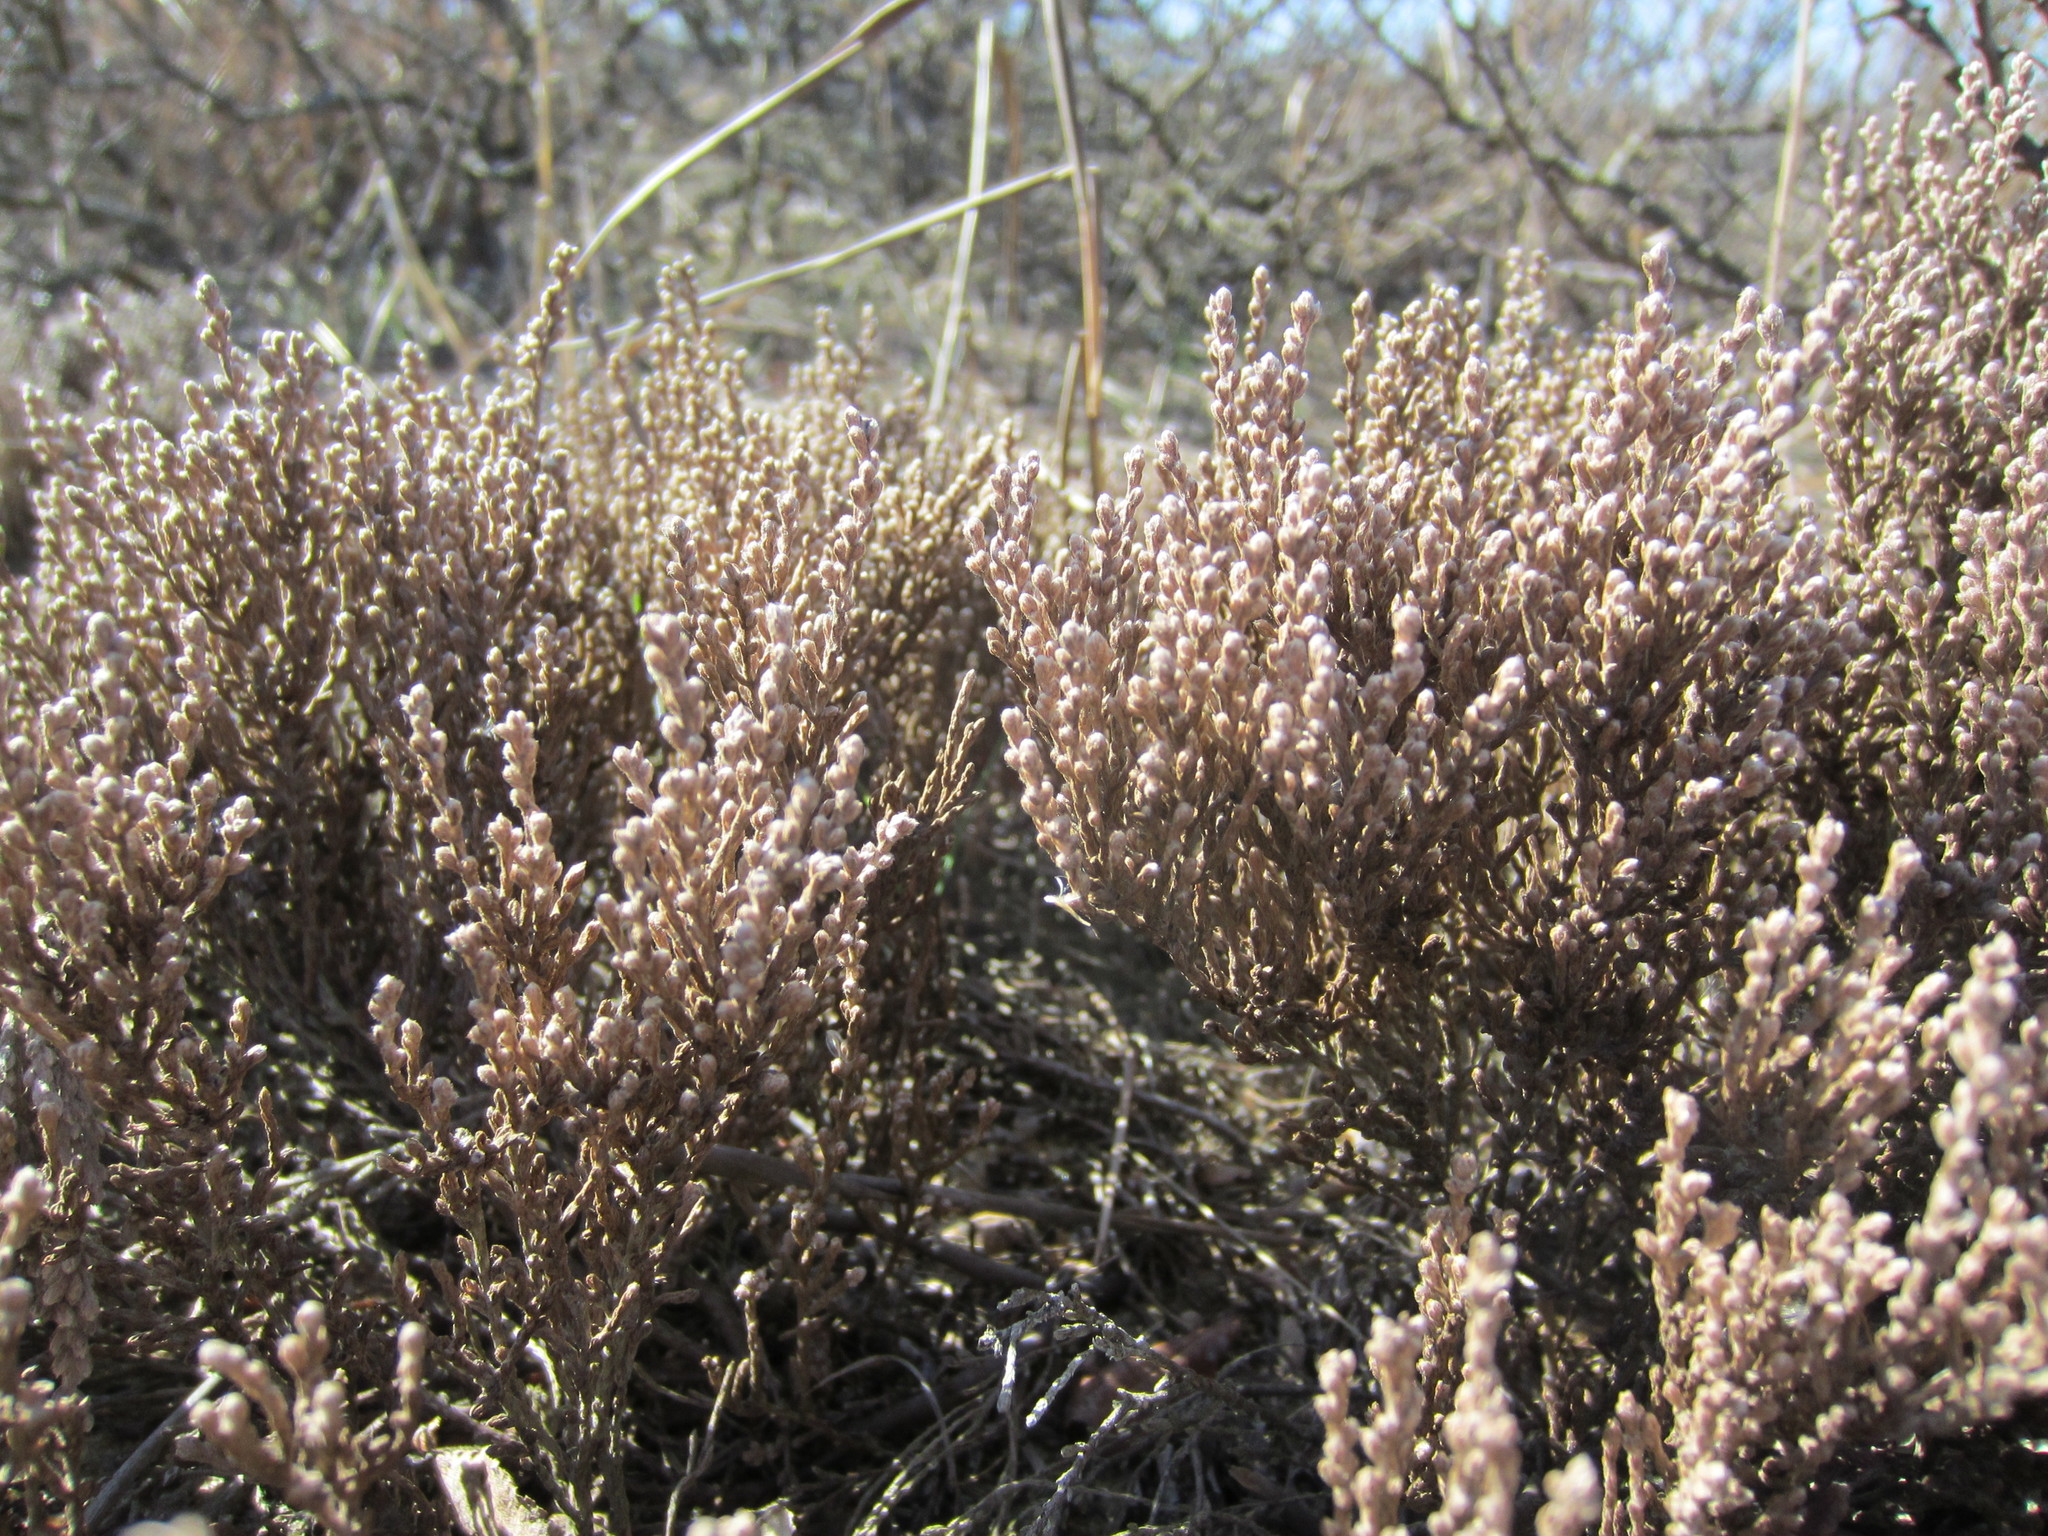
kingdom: Plantae
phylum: Tracheophyta
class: Magnoliopsida
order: Malvales
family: Cistaceae
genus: Hudsonia
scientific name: Hudsonia tomentosa
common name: Beach-heath
